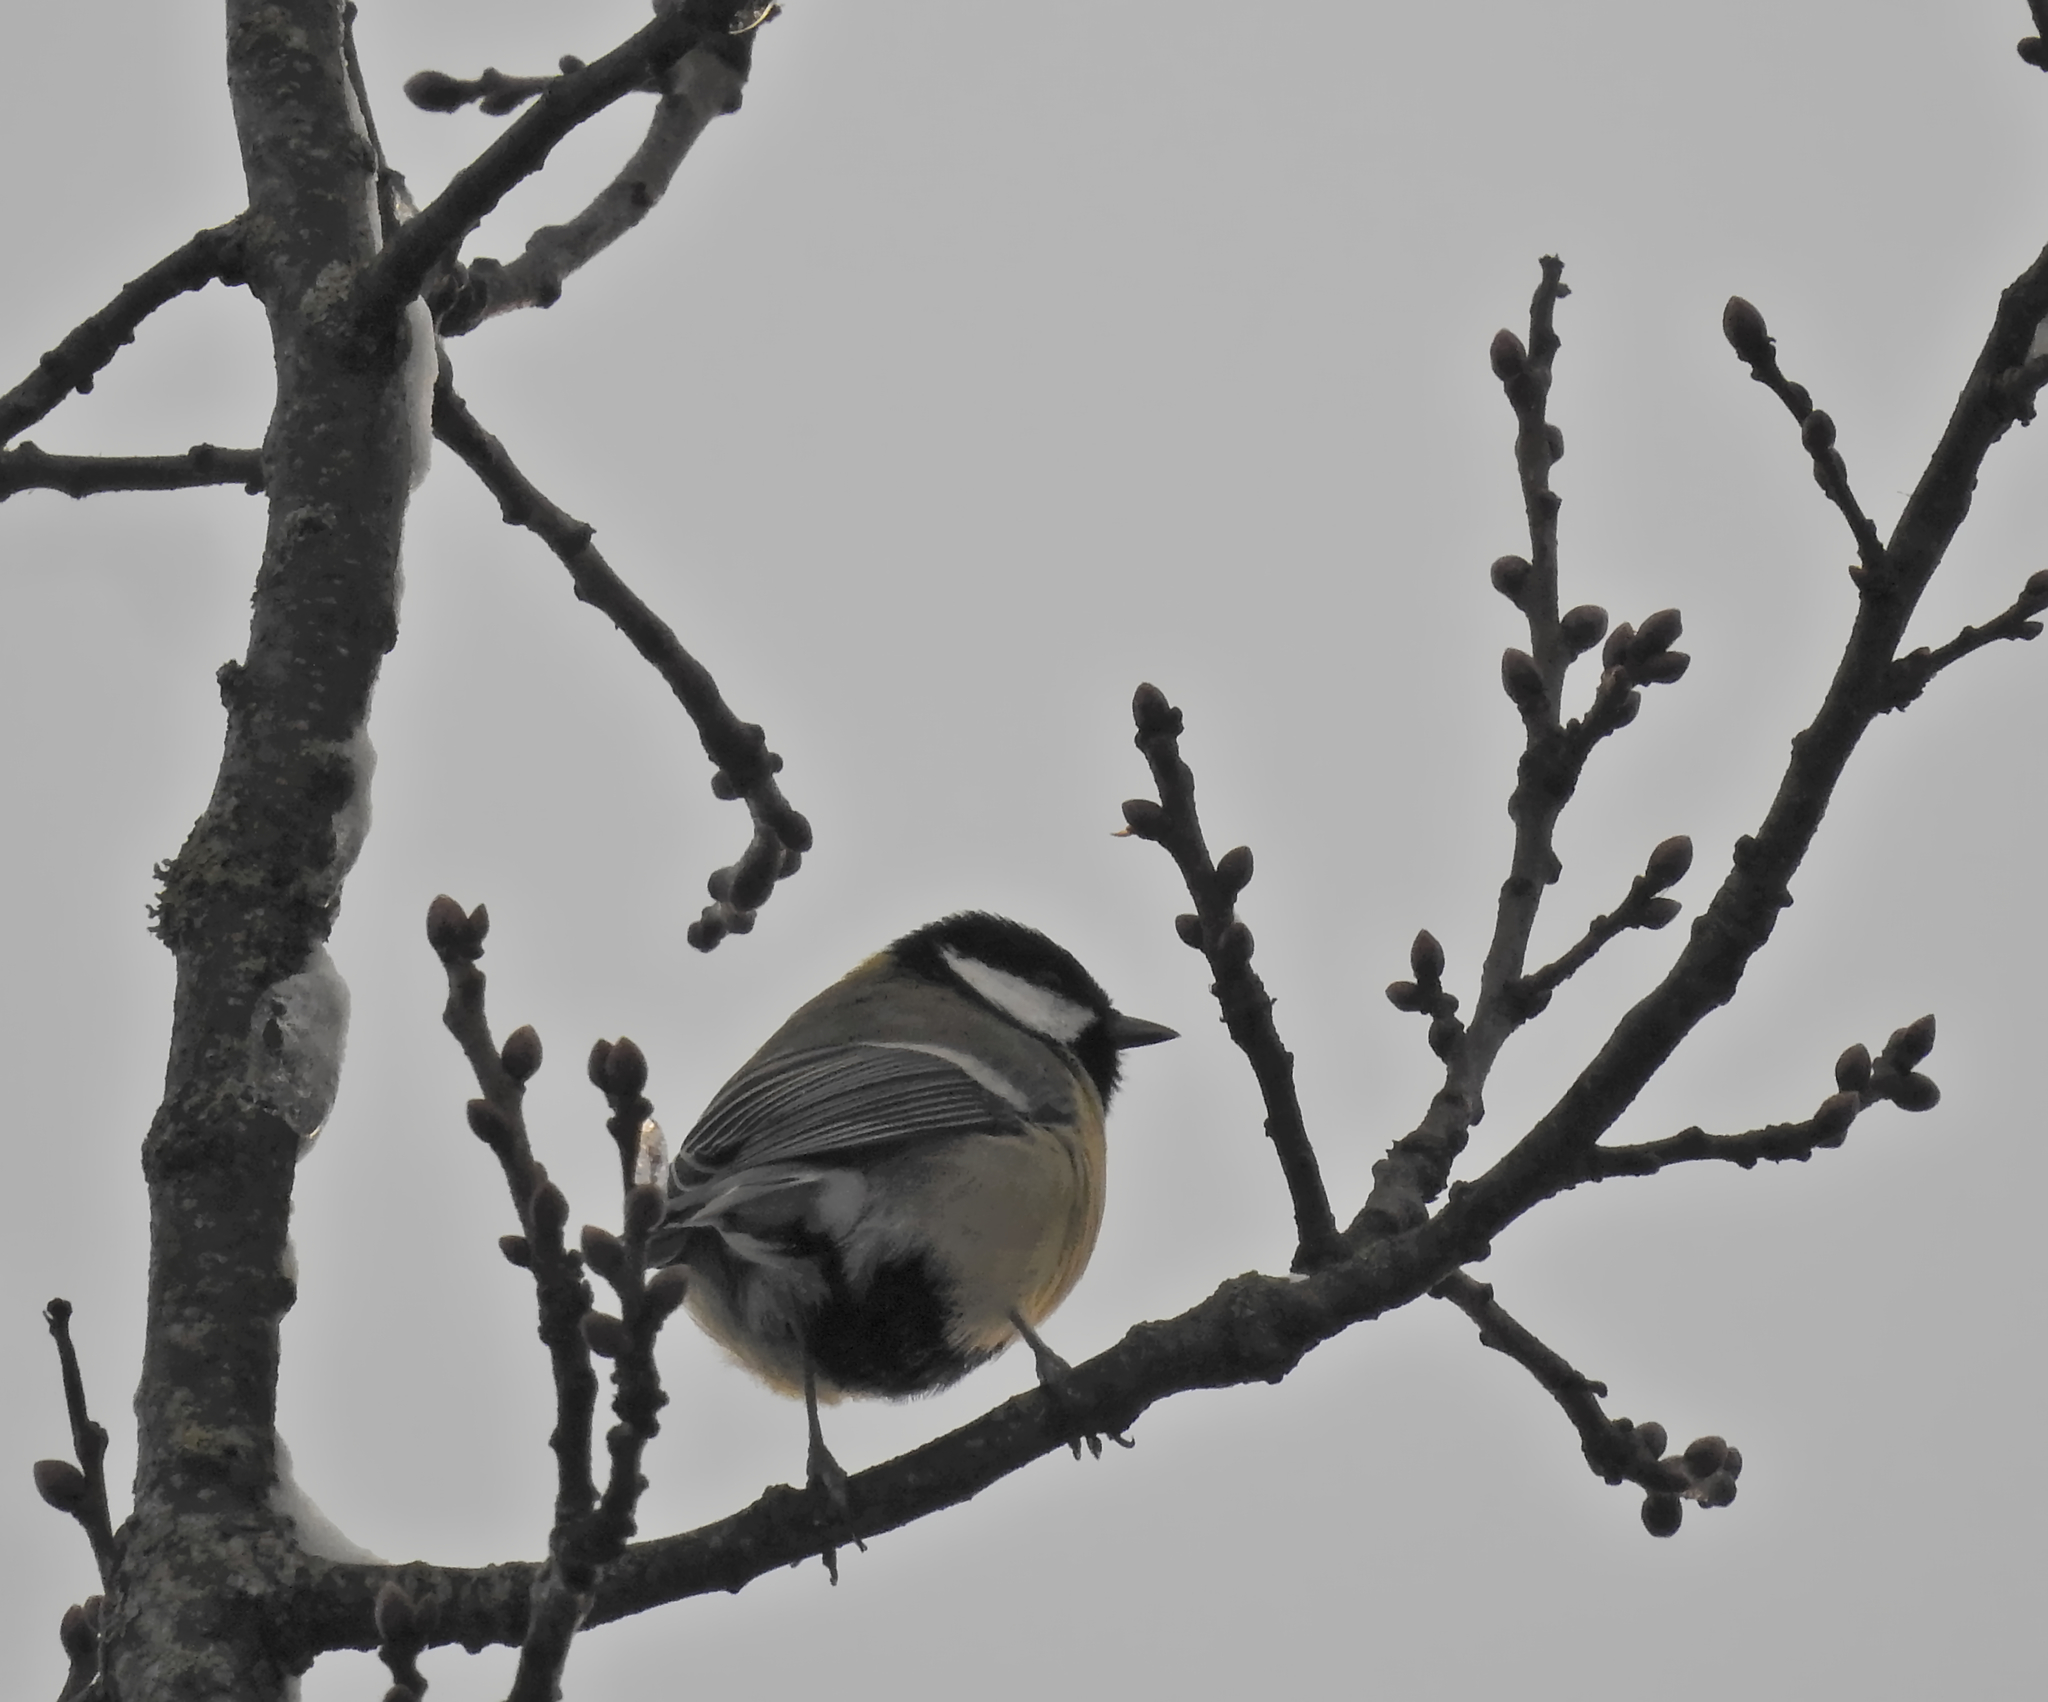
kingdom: Animalia
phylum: Chordata
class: Aves
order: Passeriformes
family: Paridae
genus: Parus
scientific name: Parus major
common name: Great tit
